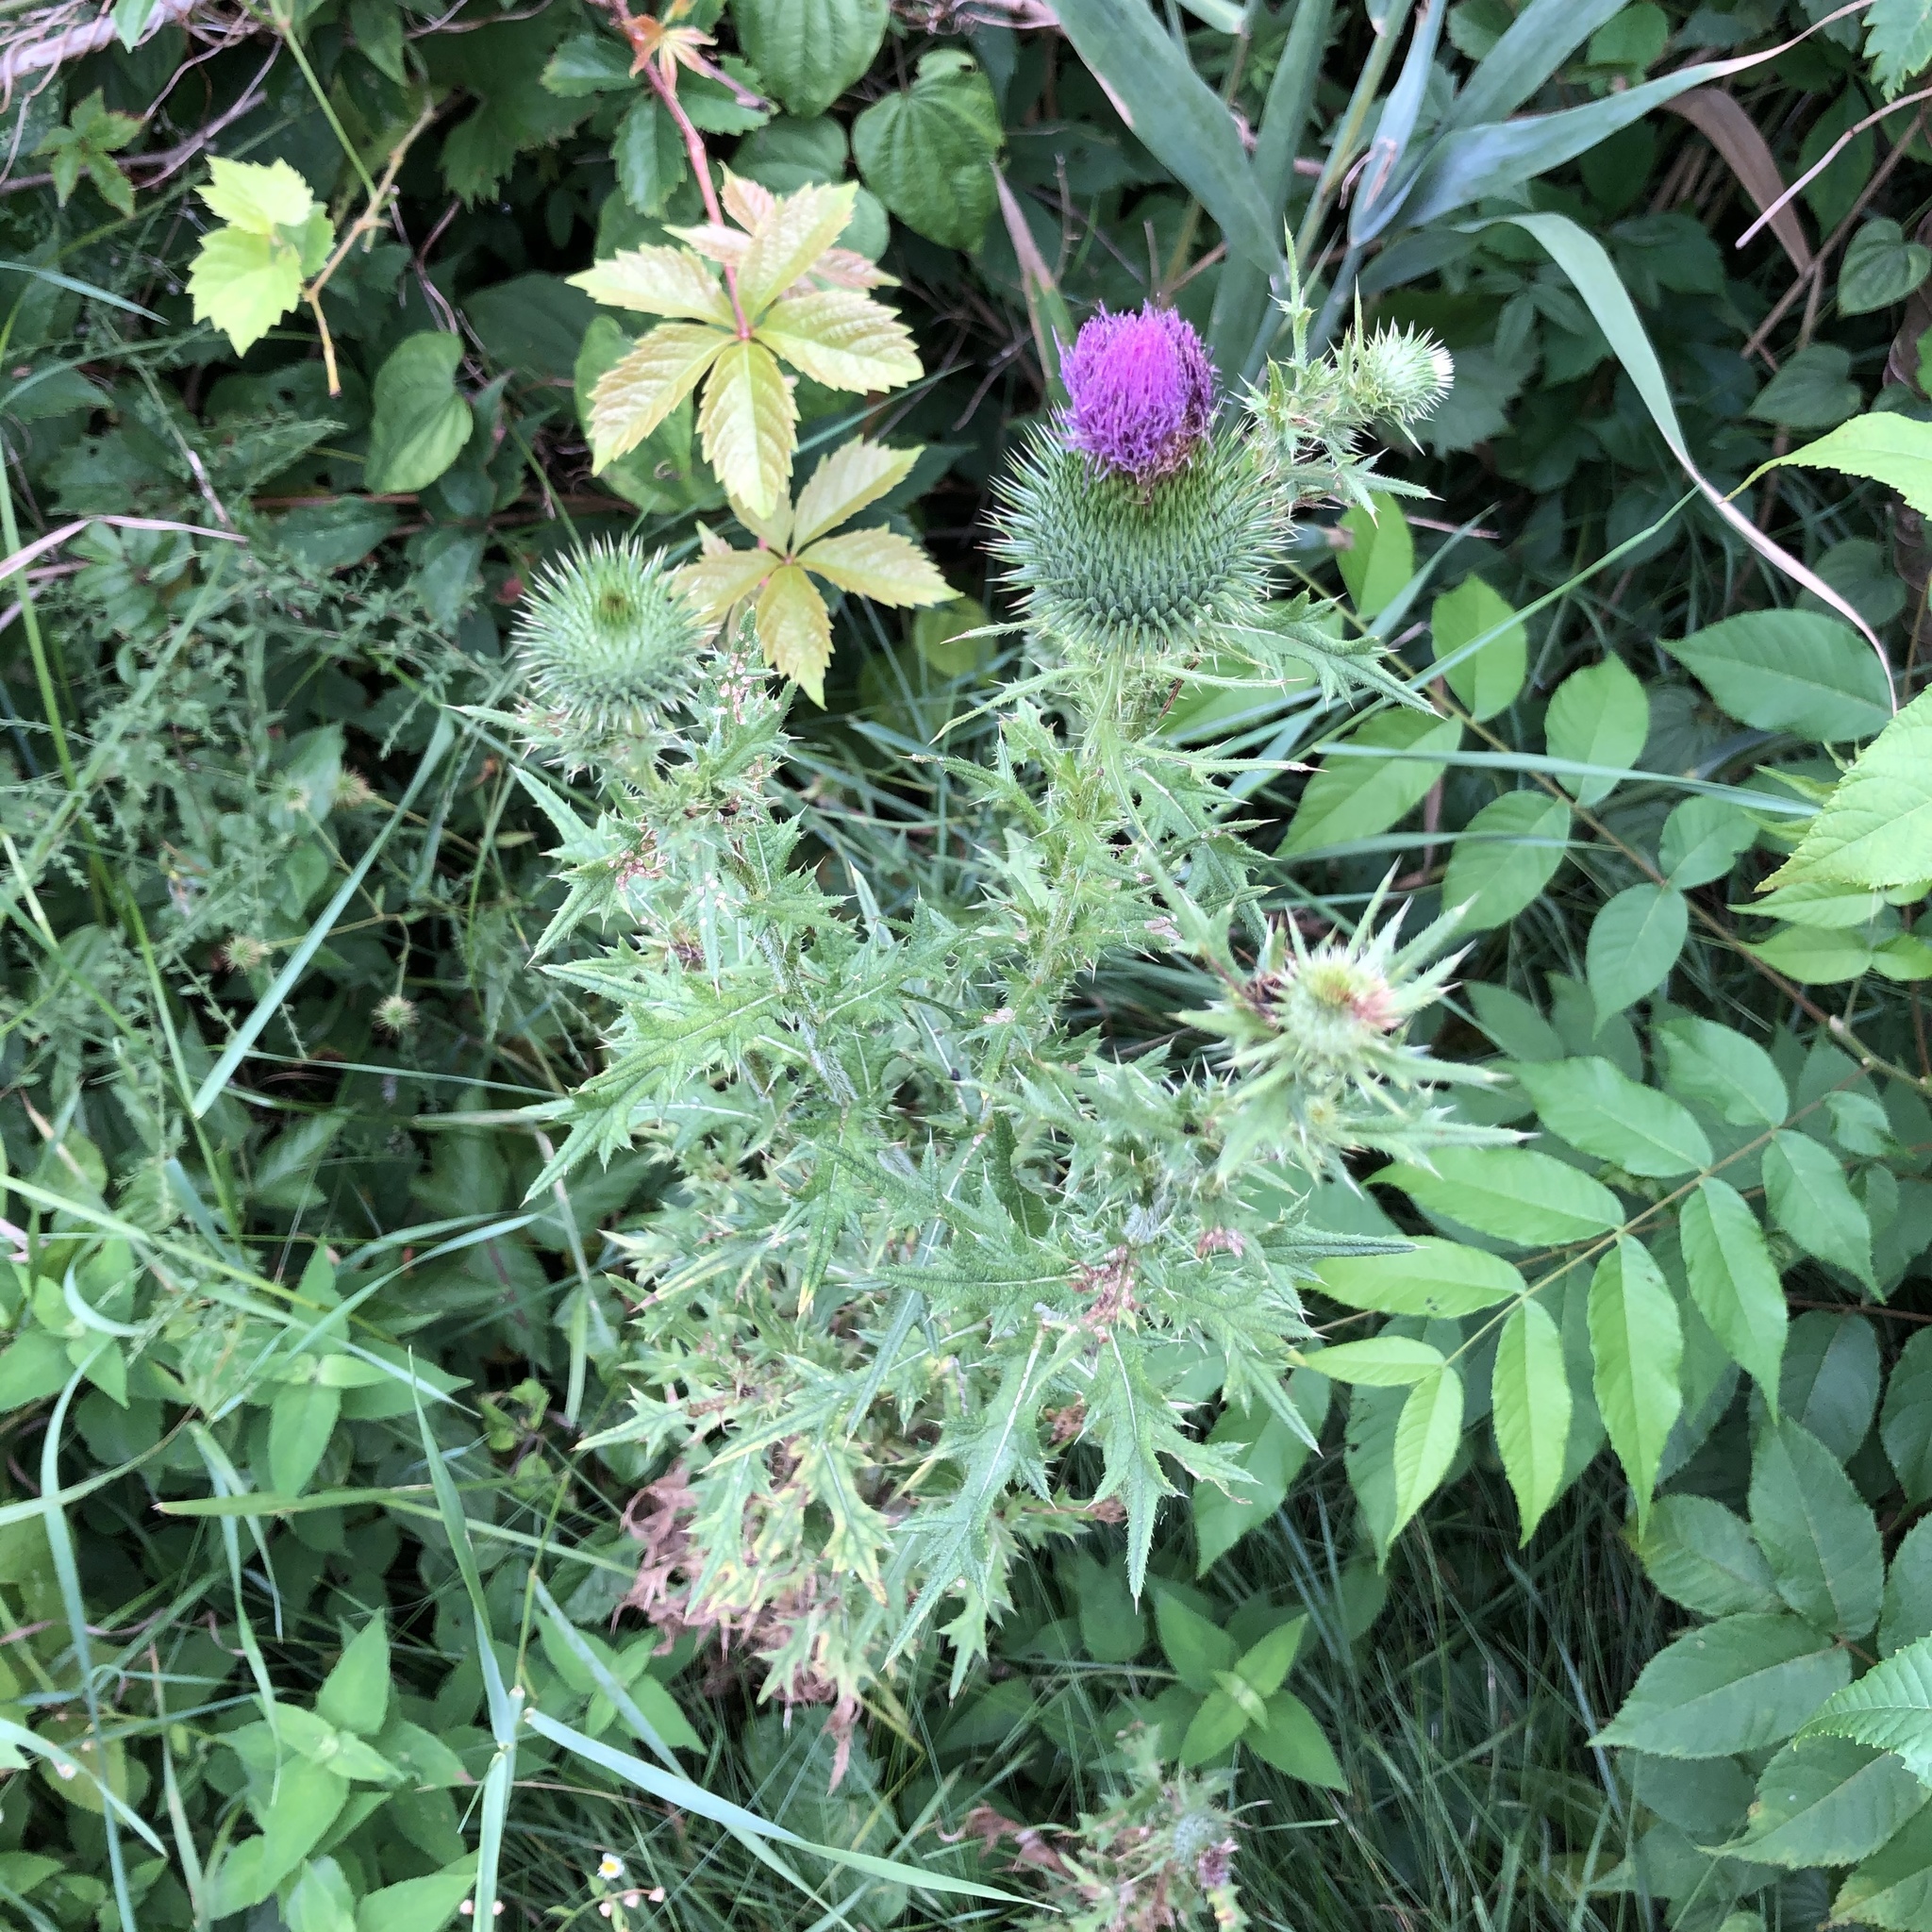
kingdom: Plantae
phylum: Tracheophyta
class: Magnoliopsida
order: Asterales
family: Asteraceae
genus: Cirsium
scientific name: Cirsium vulgare
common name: Bull thistle
